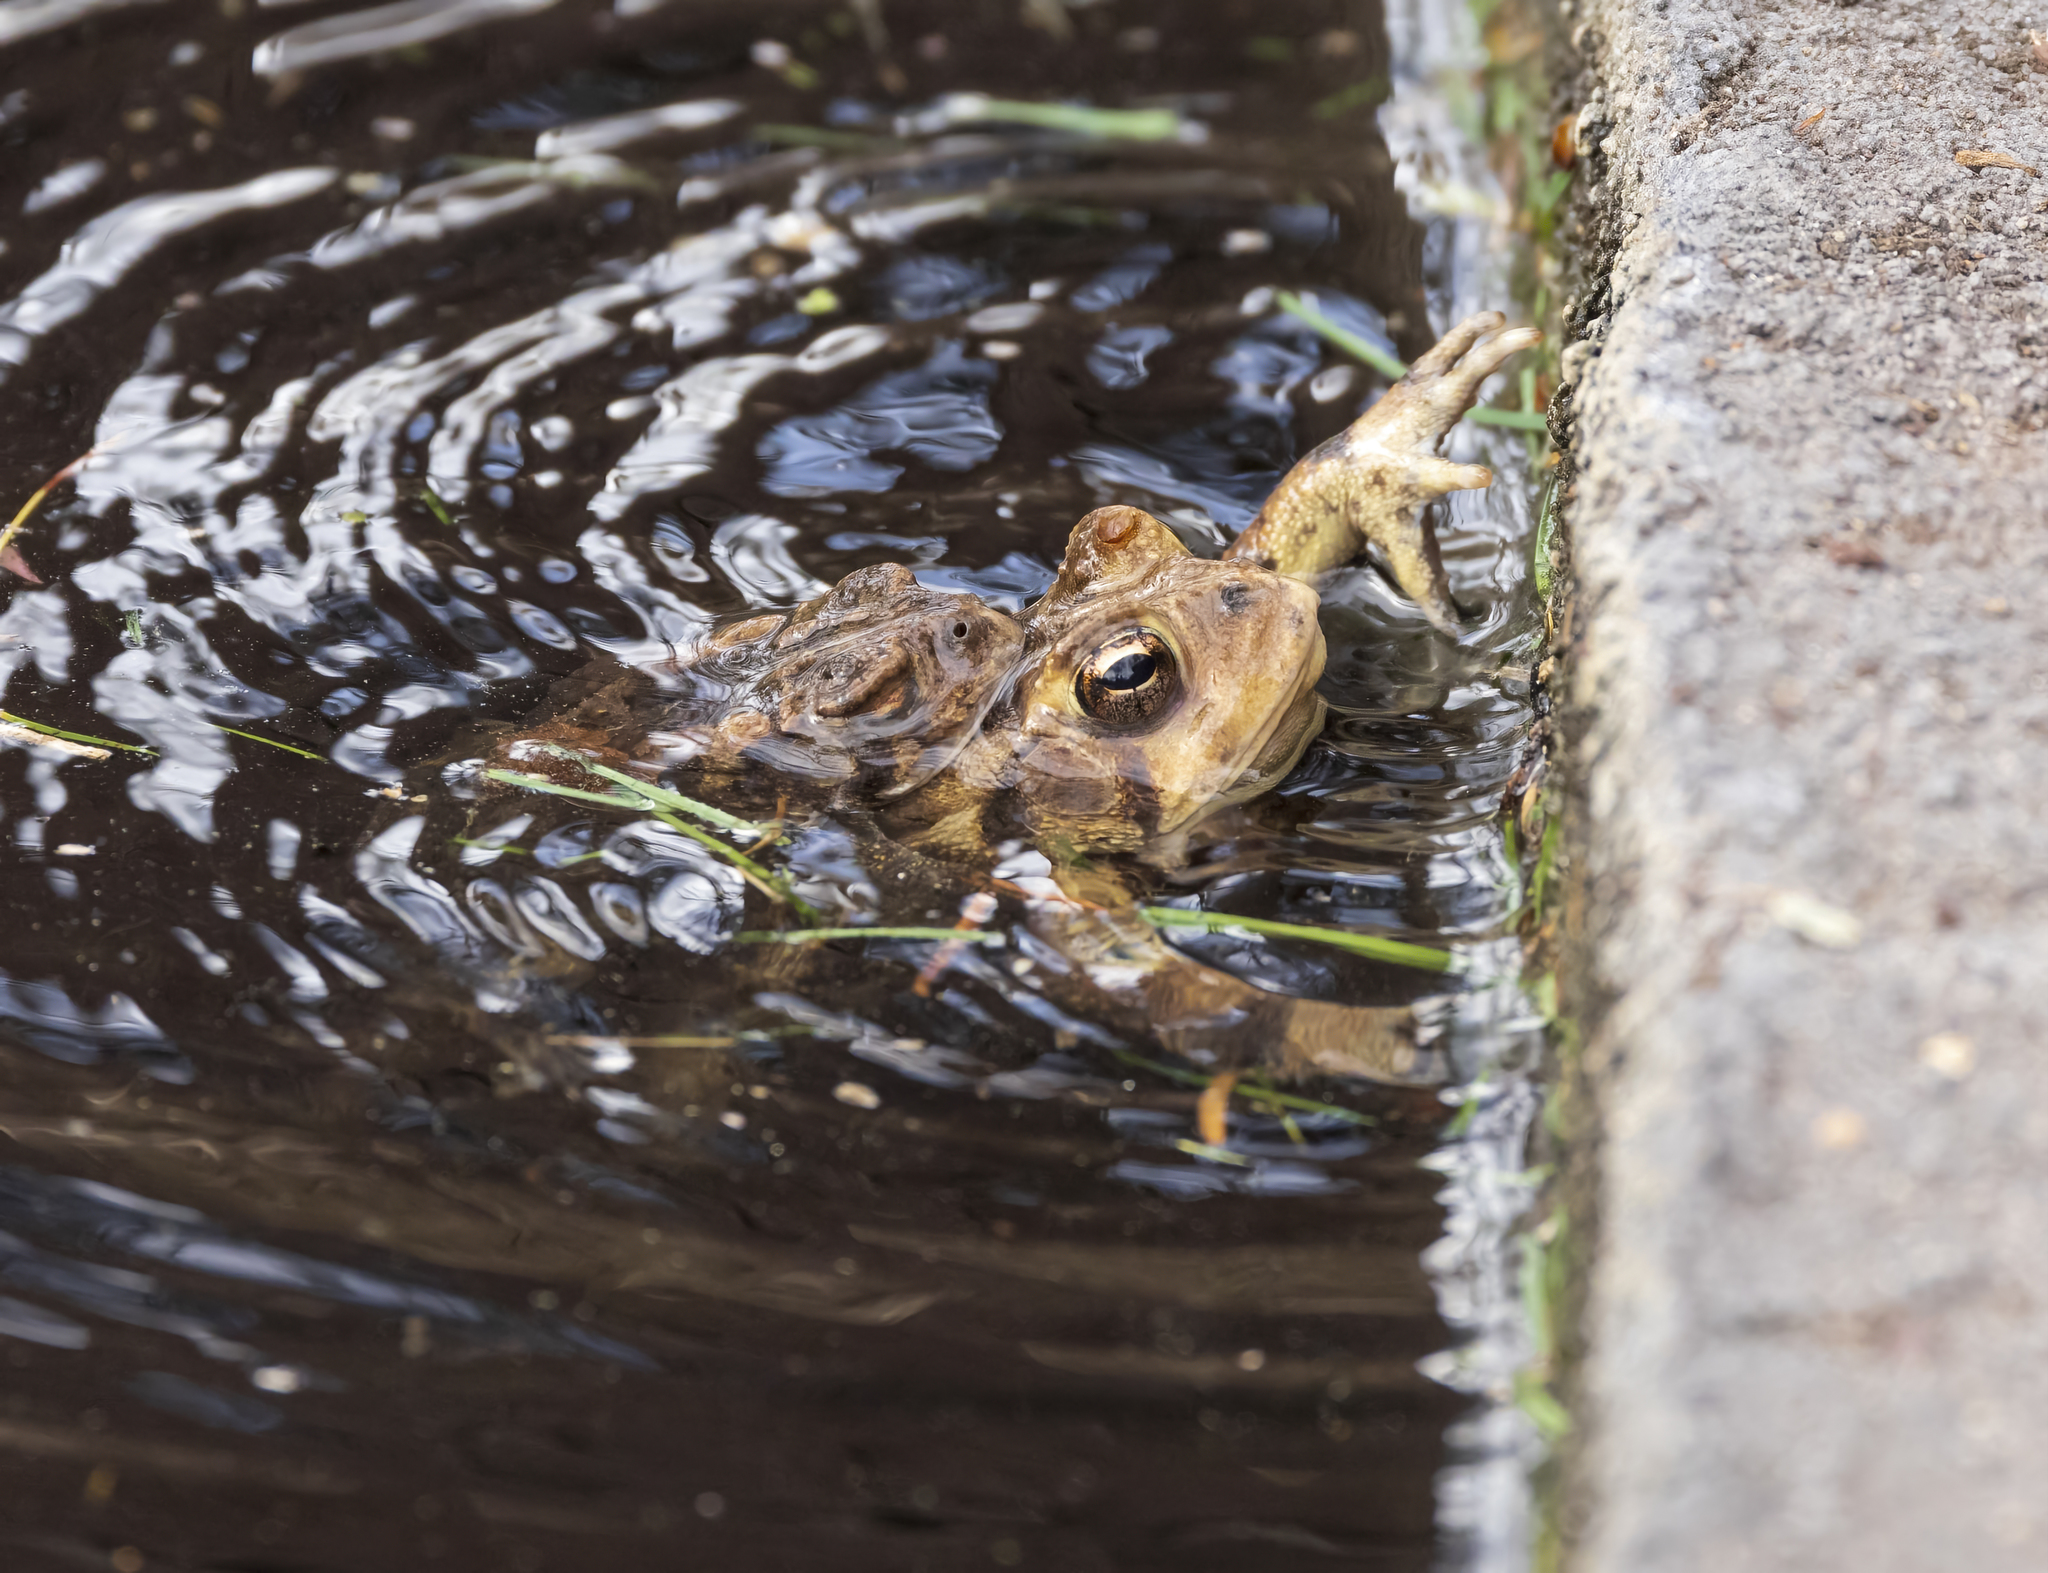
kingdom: Animalia
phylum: Chordata
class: Amphibia
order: Anura
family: Bufonidae
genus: Anaxyrus
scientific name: Anaxyrus americanus
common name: American toad
